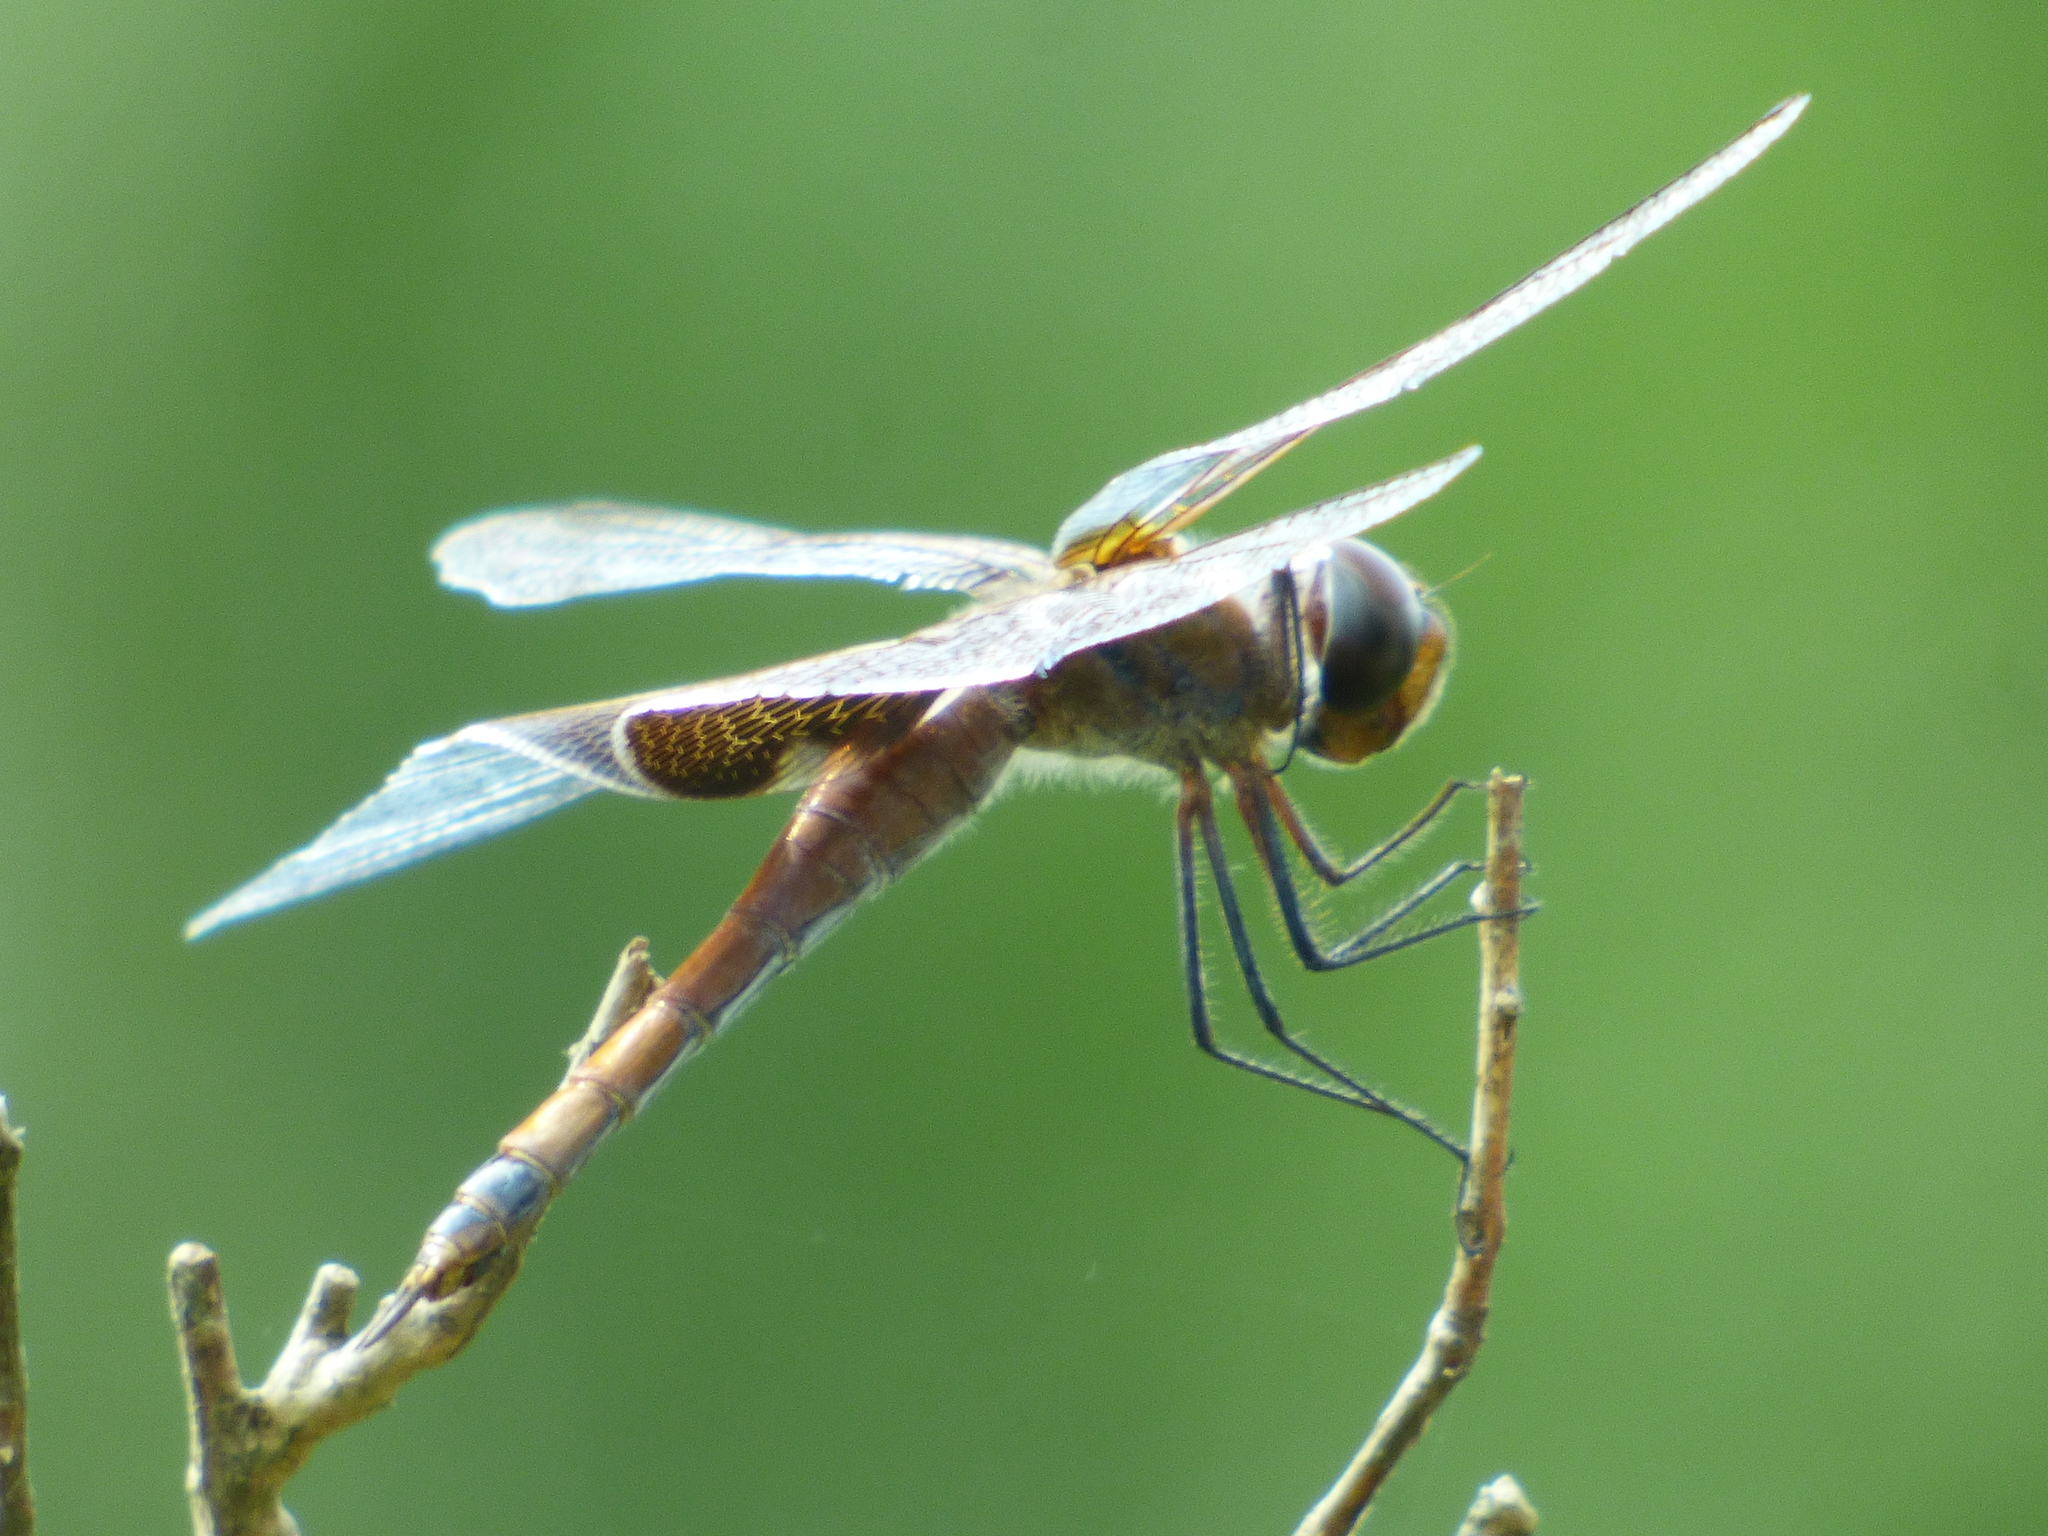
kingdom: Animalia
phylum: Arthropoda
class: Insecta
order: Odonata
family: Libellulidae
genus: Tramea
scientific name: Tramea carolina
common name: Carolina saddlebags
